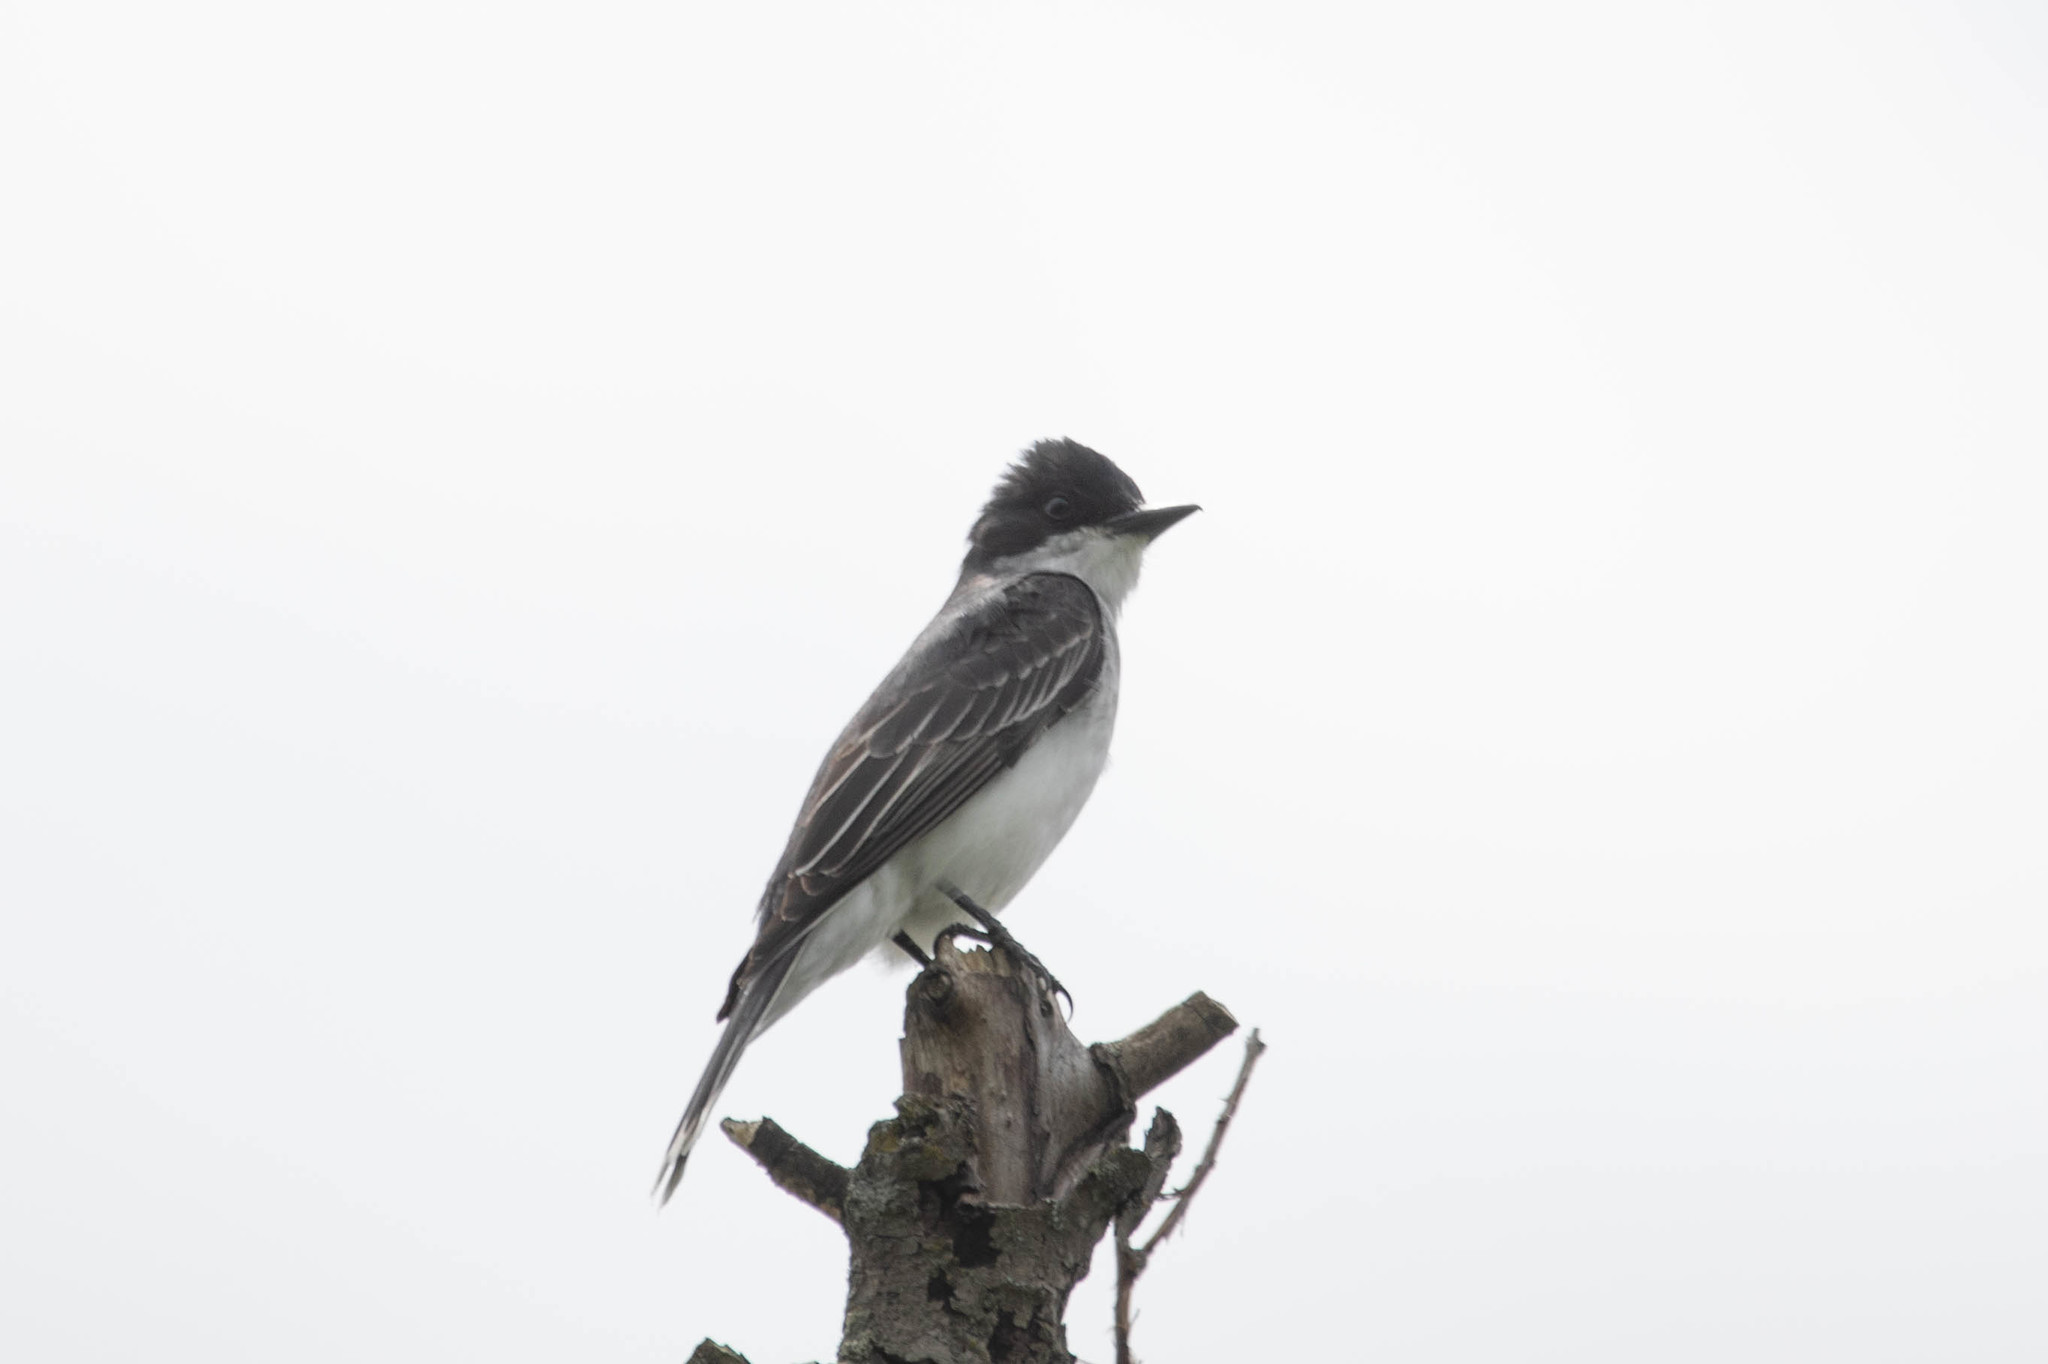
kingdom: Animalia
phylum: Chordata
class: Aves
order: Passeriformes
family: Tyrannidae
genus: Tyrannus
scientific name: Tyrannus tyrannus
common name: Eastern kingbird
